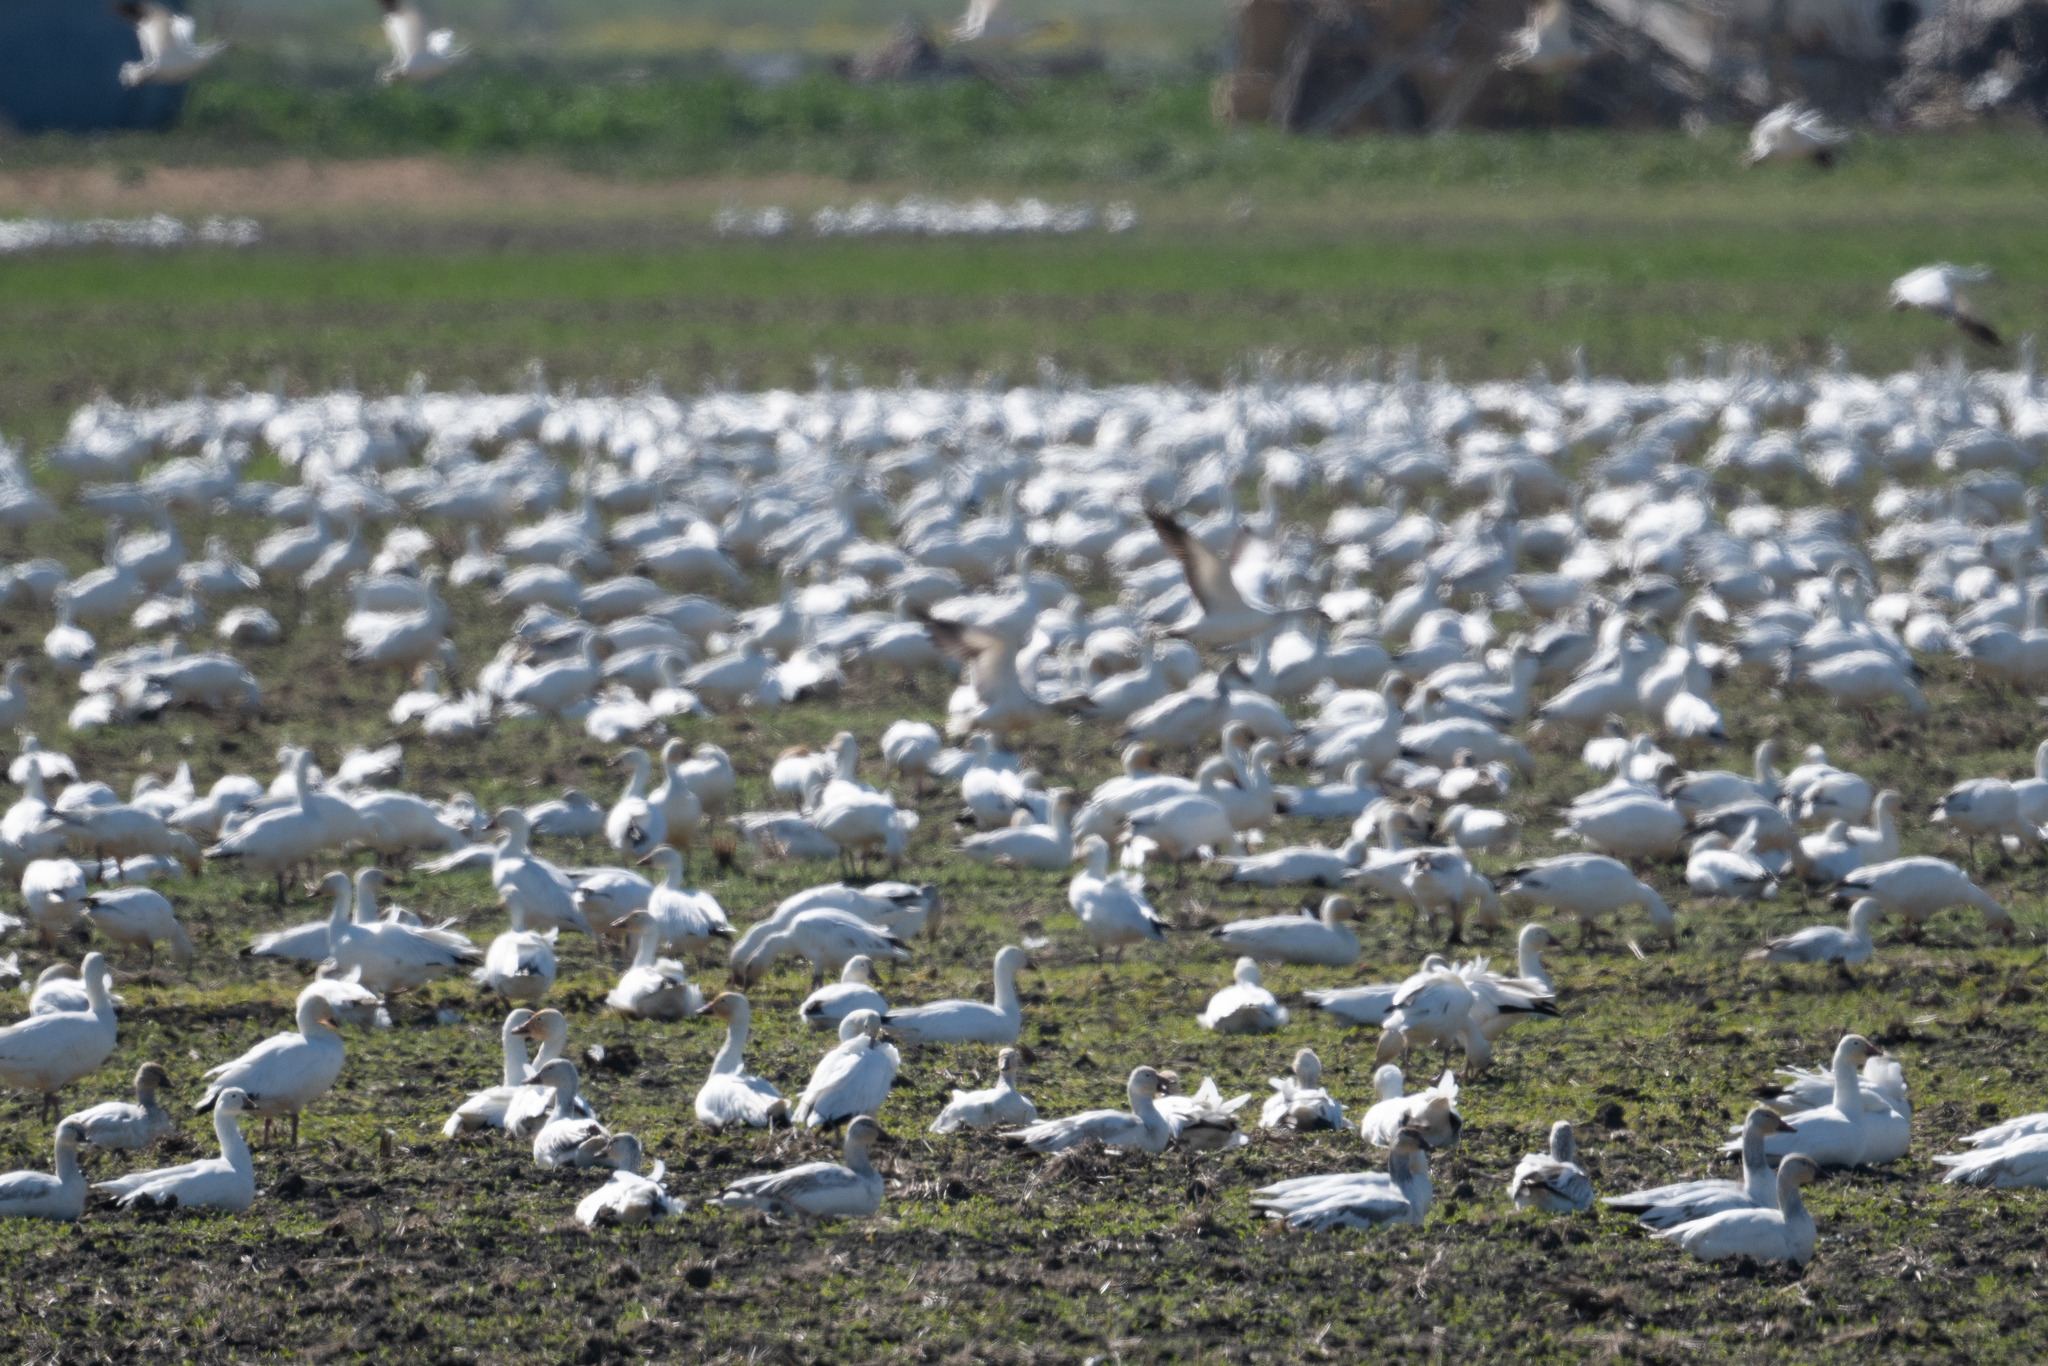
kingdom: Animalia
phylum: Chordata
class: Aves
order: Anseriformes
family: Anatidae
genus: Anser
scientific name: Anser caerulescens
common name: Snow goose
